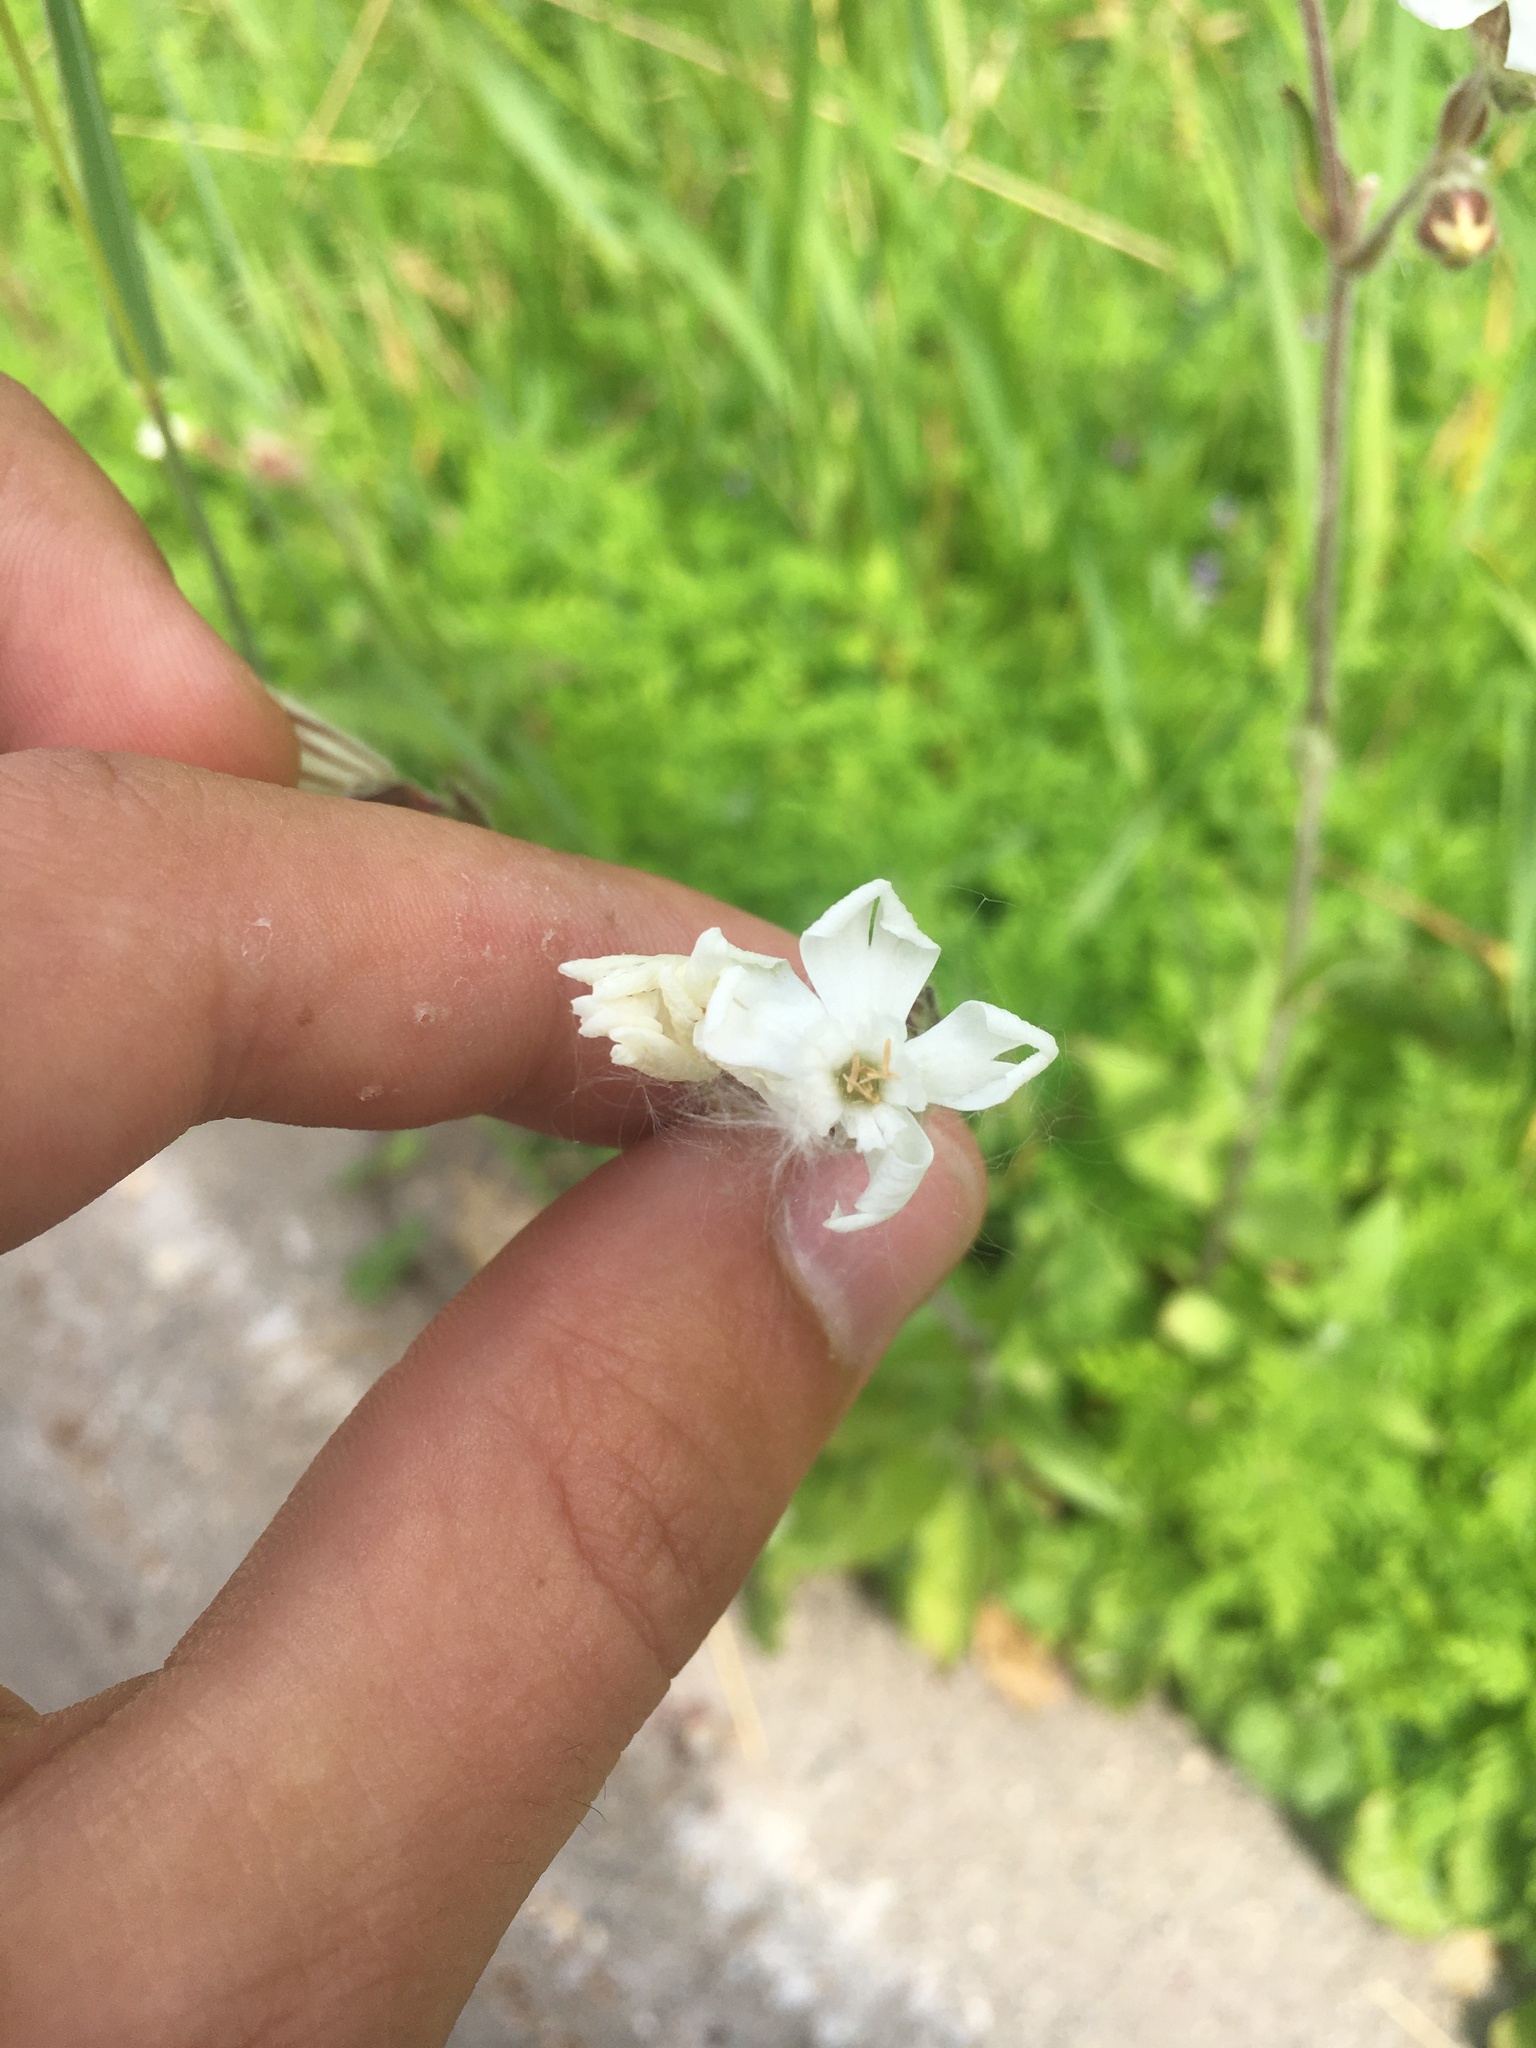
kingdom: Plantae
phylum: Tracheophyta
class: Magnoliopsida
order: Caryophyllales
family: Caryophyllaceae
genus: Silene
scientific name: Silene latifolia
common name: White campion
